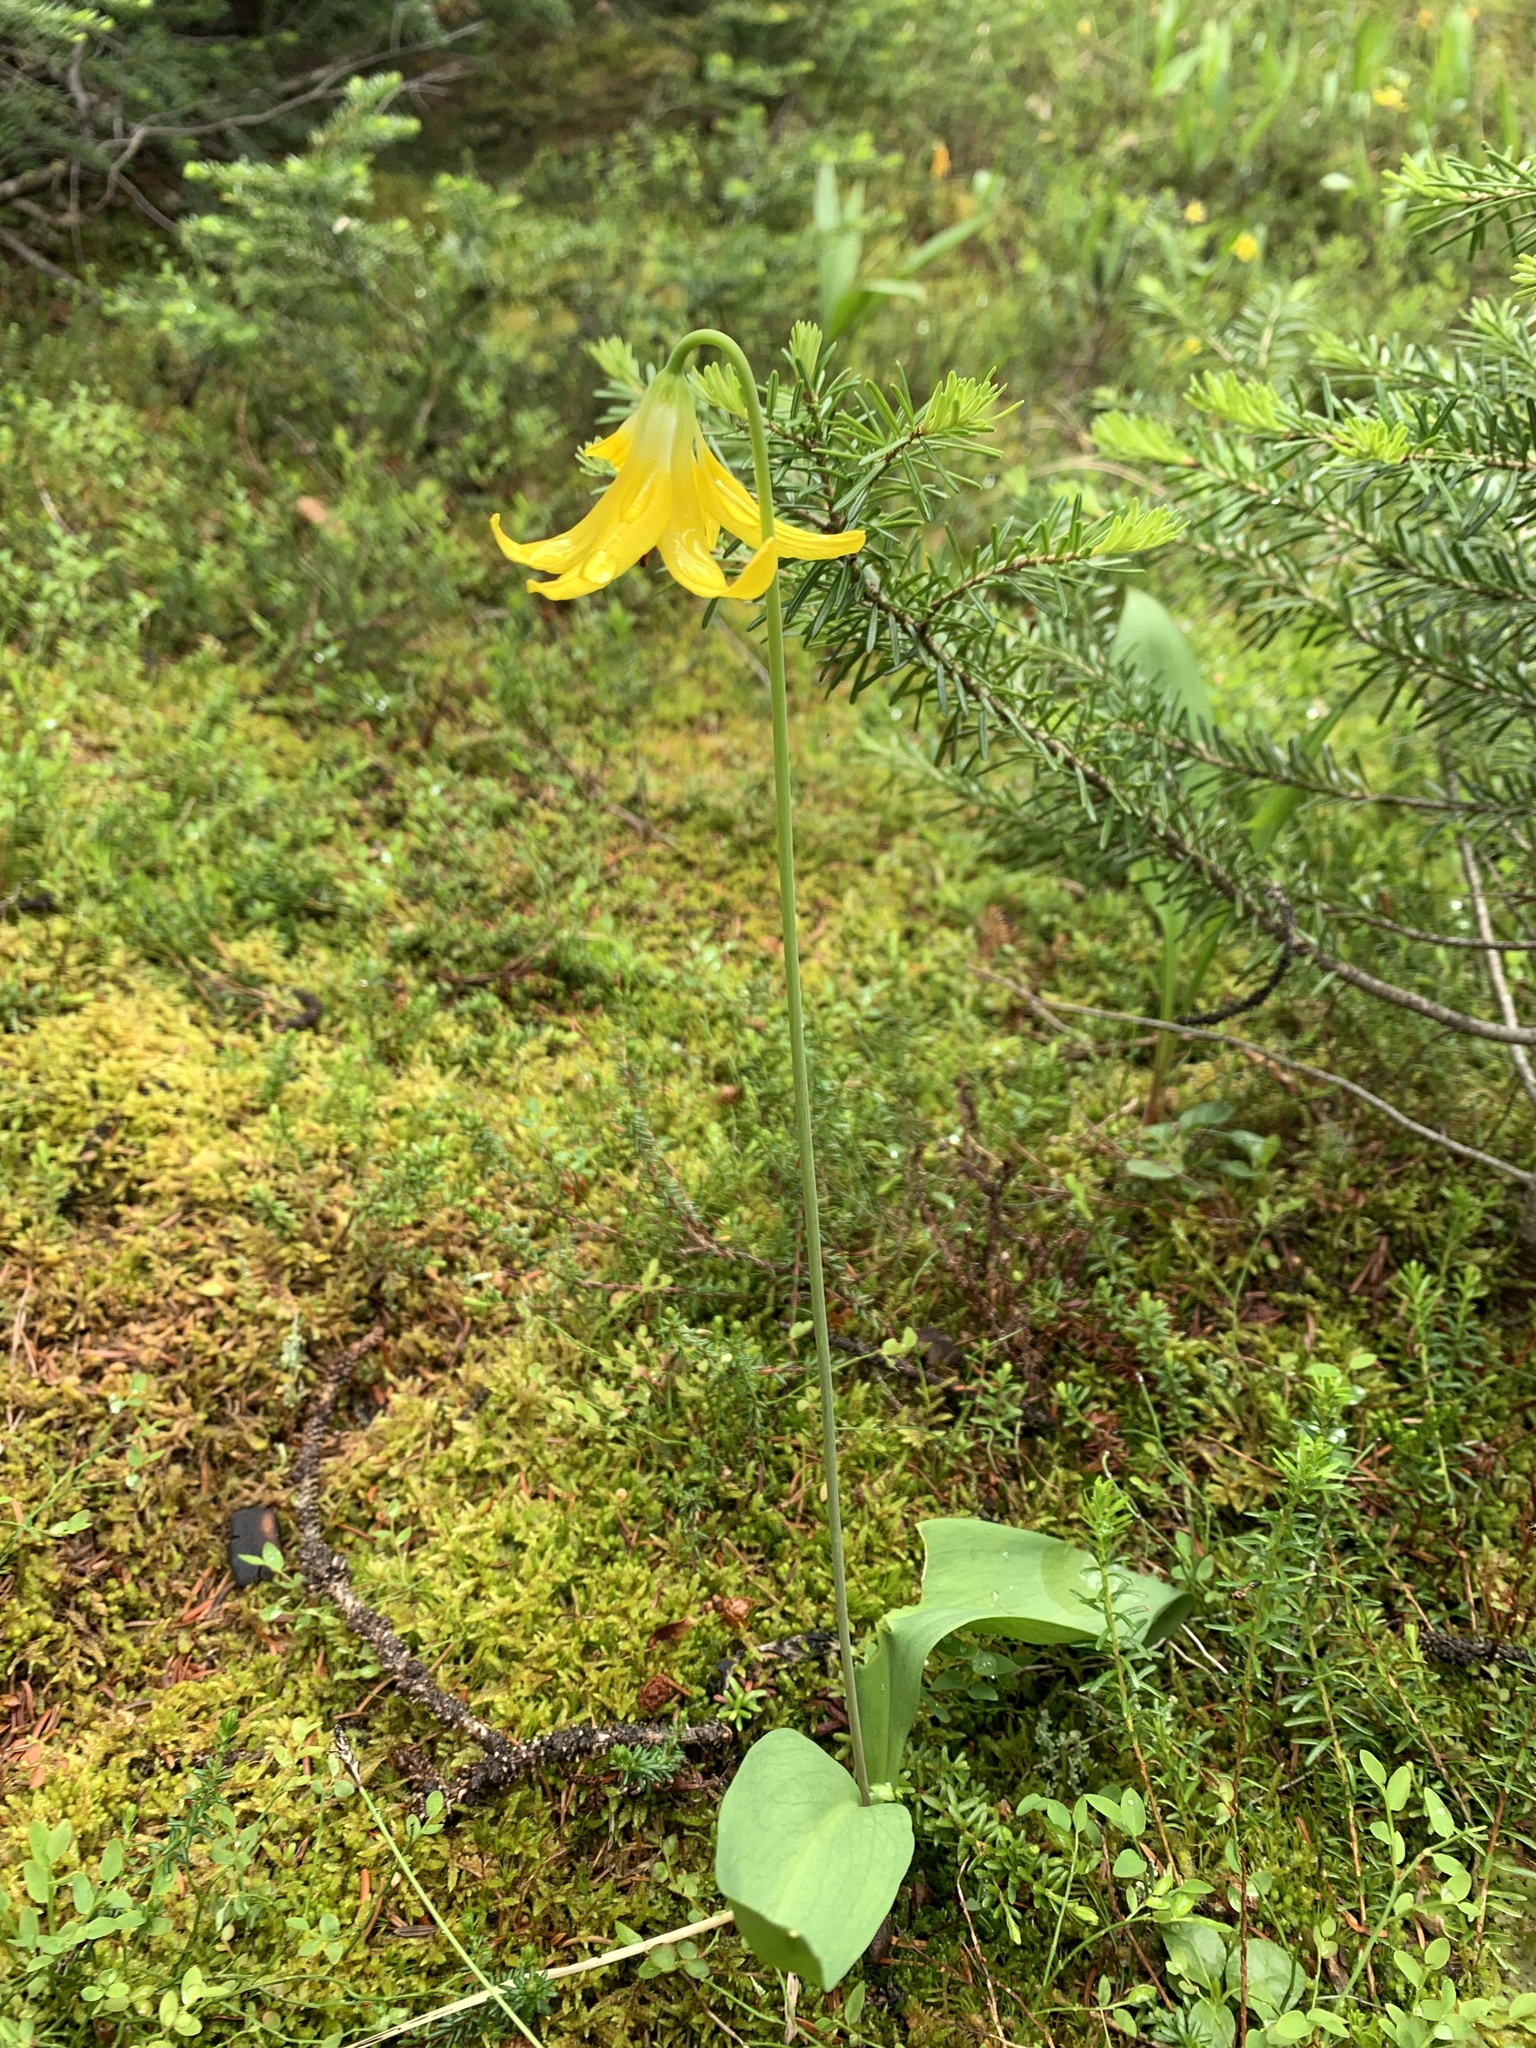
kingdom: Plantae
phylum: Tracheophyta
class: Liliopsida
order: Liliales
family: Liliaceae
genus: Erythronium
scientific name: Erythronium grandiflorum
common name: Avalanche-lily
